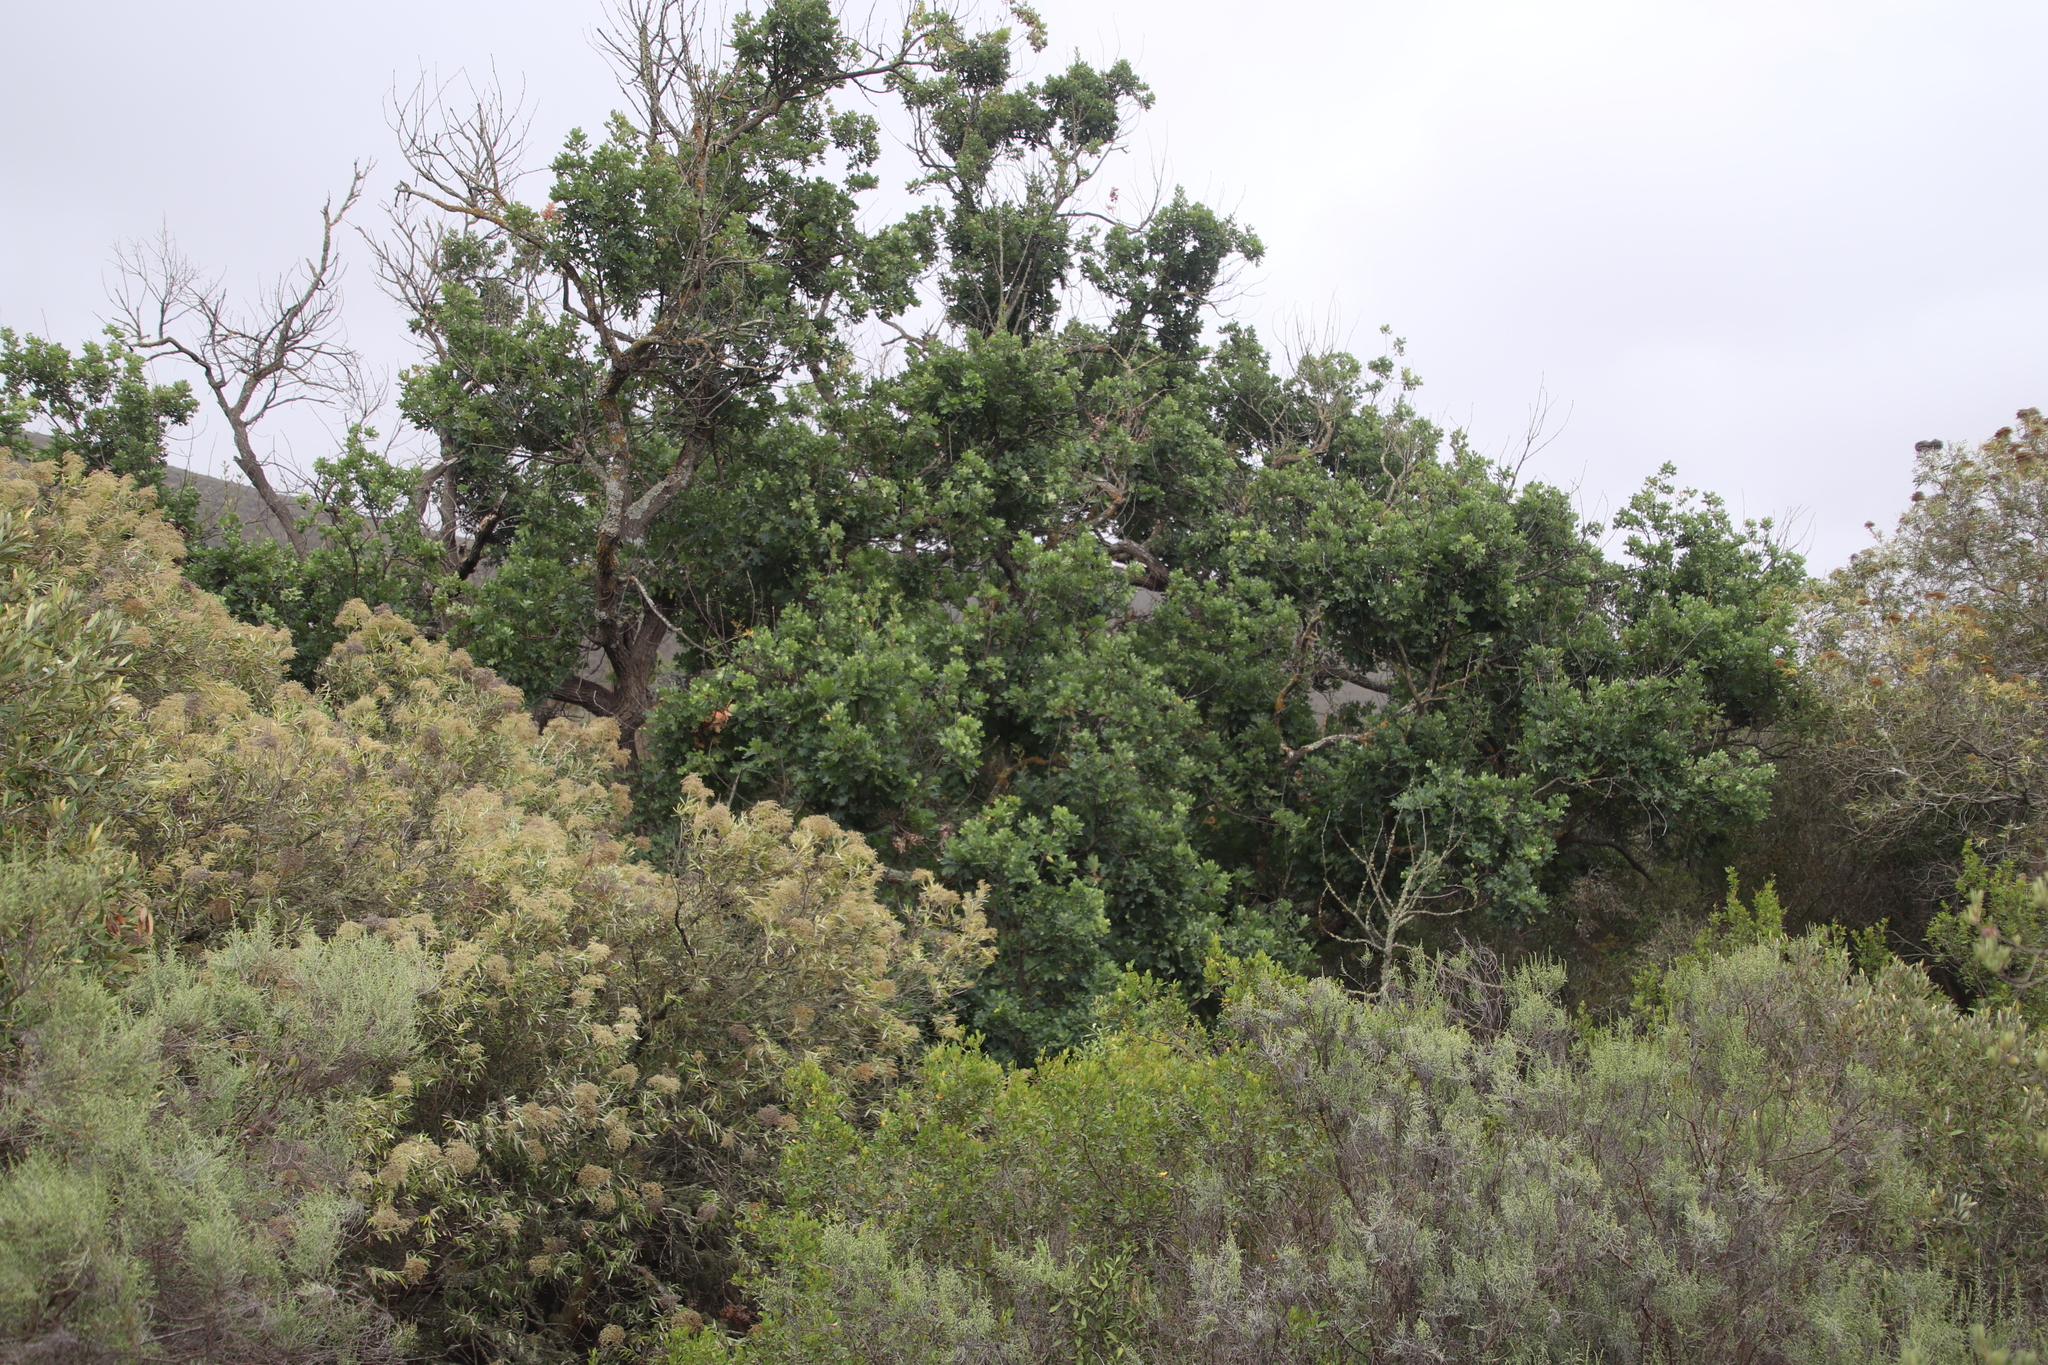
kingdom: Plantae
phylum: Tracheophyta
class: Magnoliopsida
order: Fagales
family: Fagaceae
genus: Quercus
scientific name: Quercus robur
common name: Pedunculate oak
